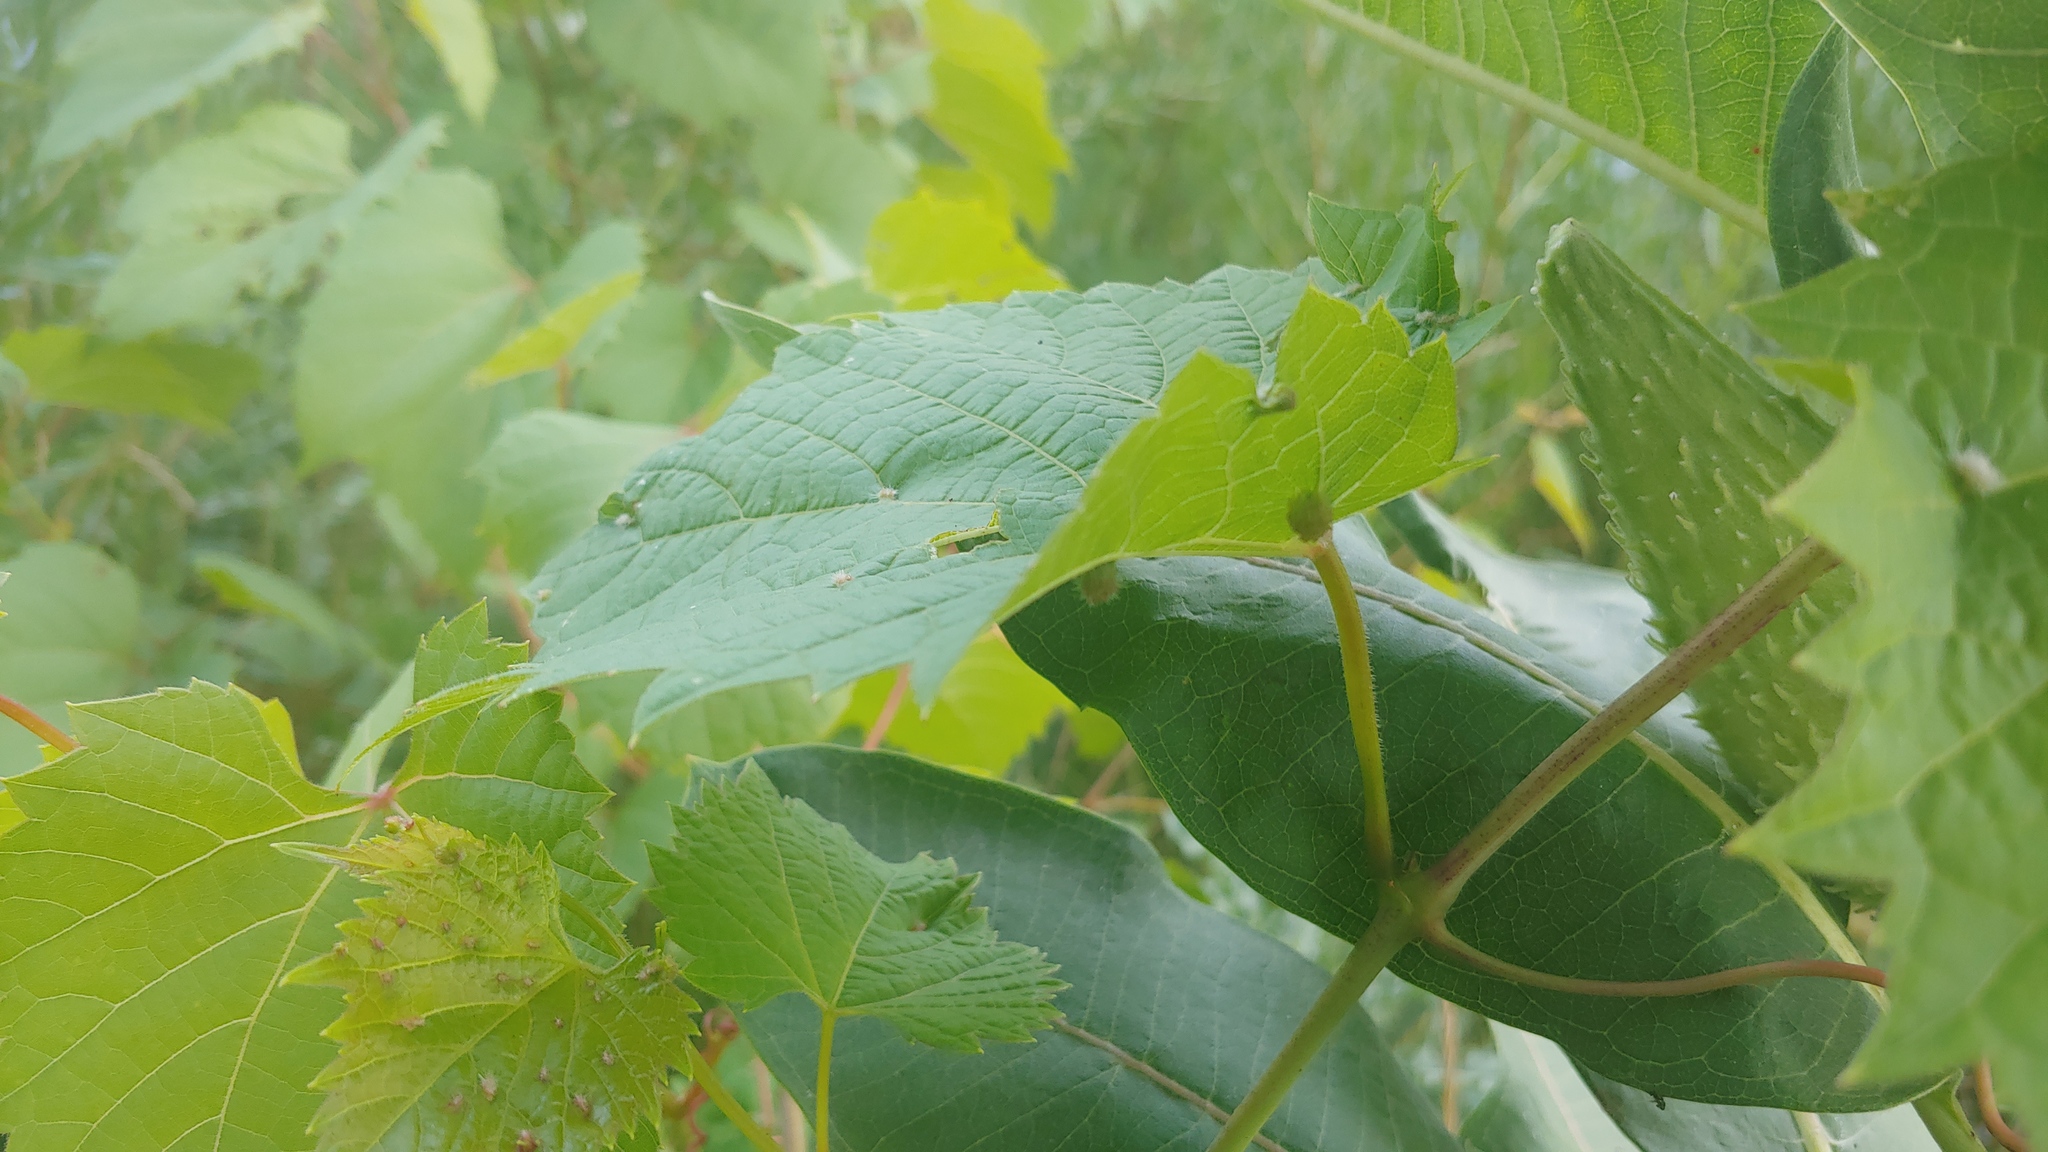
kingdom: Animalia
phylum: Arthropoda
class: Insecta
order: Hemiptera
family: Phylloxeridae
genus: Daktulosphaira
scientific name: Daktulosphaira vitifoliae
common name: Grape phylloxera
